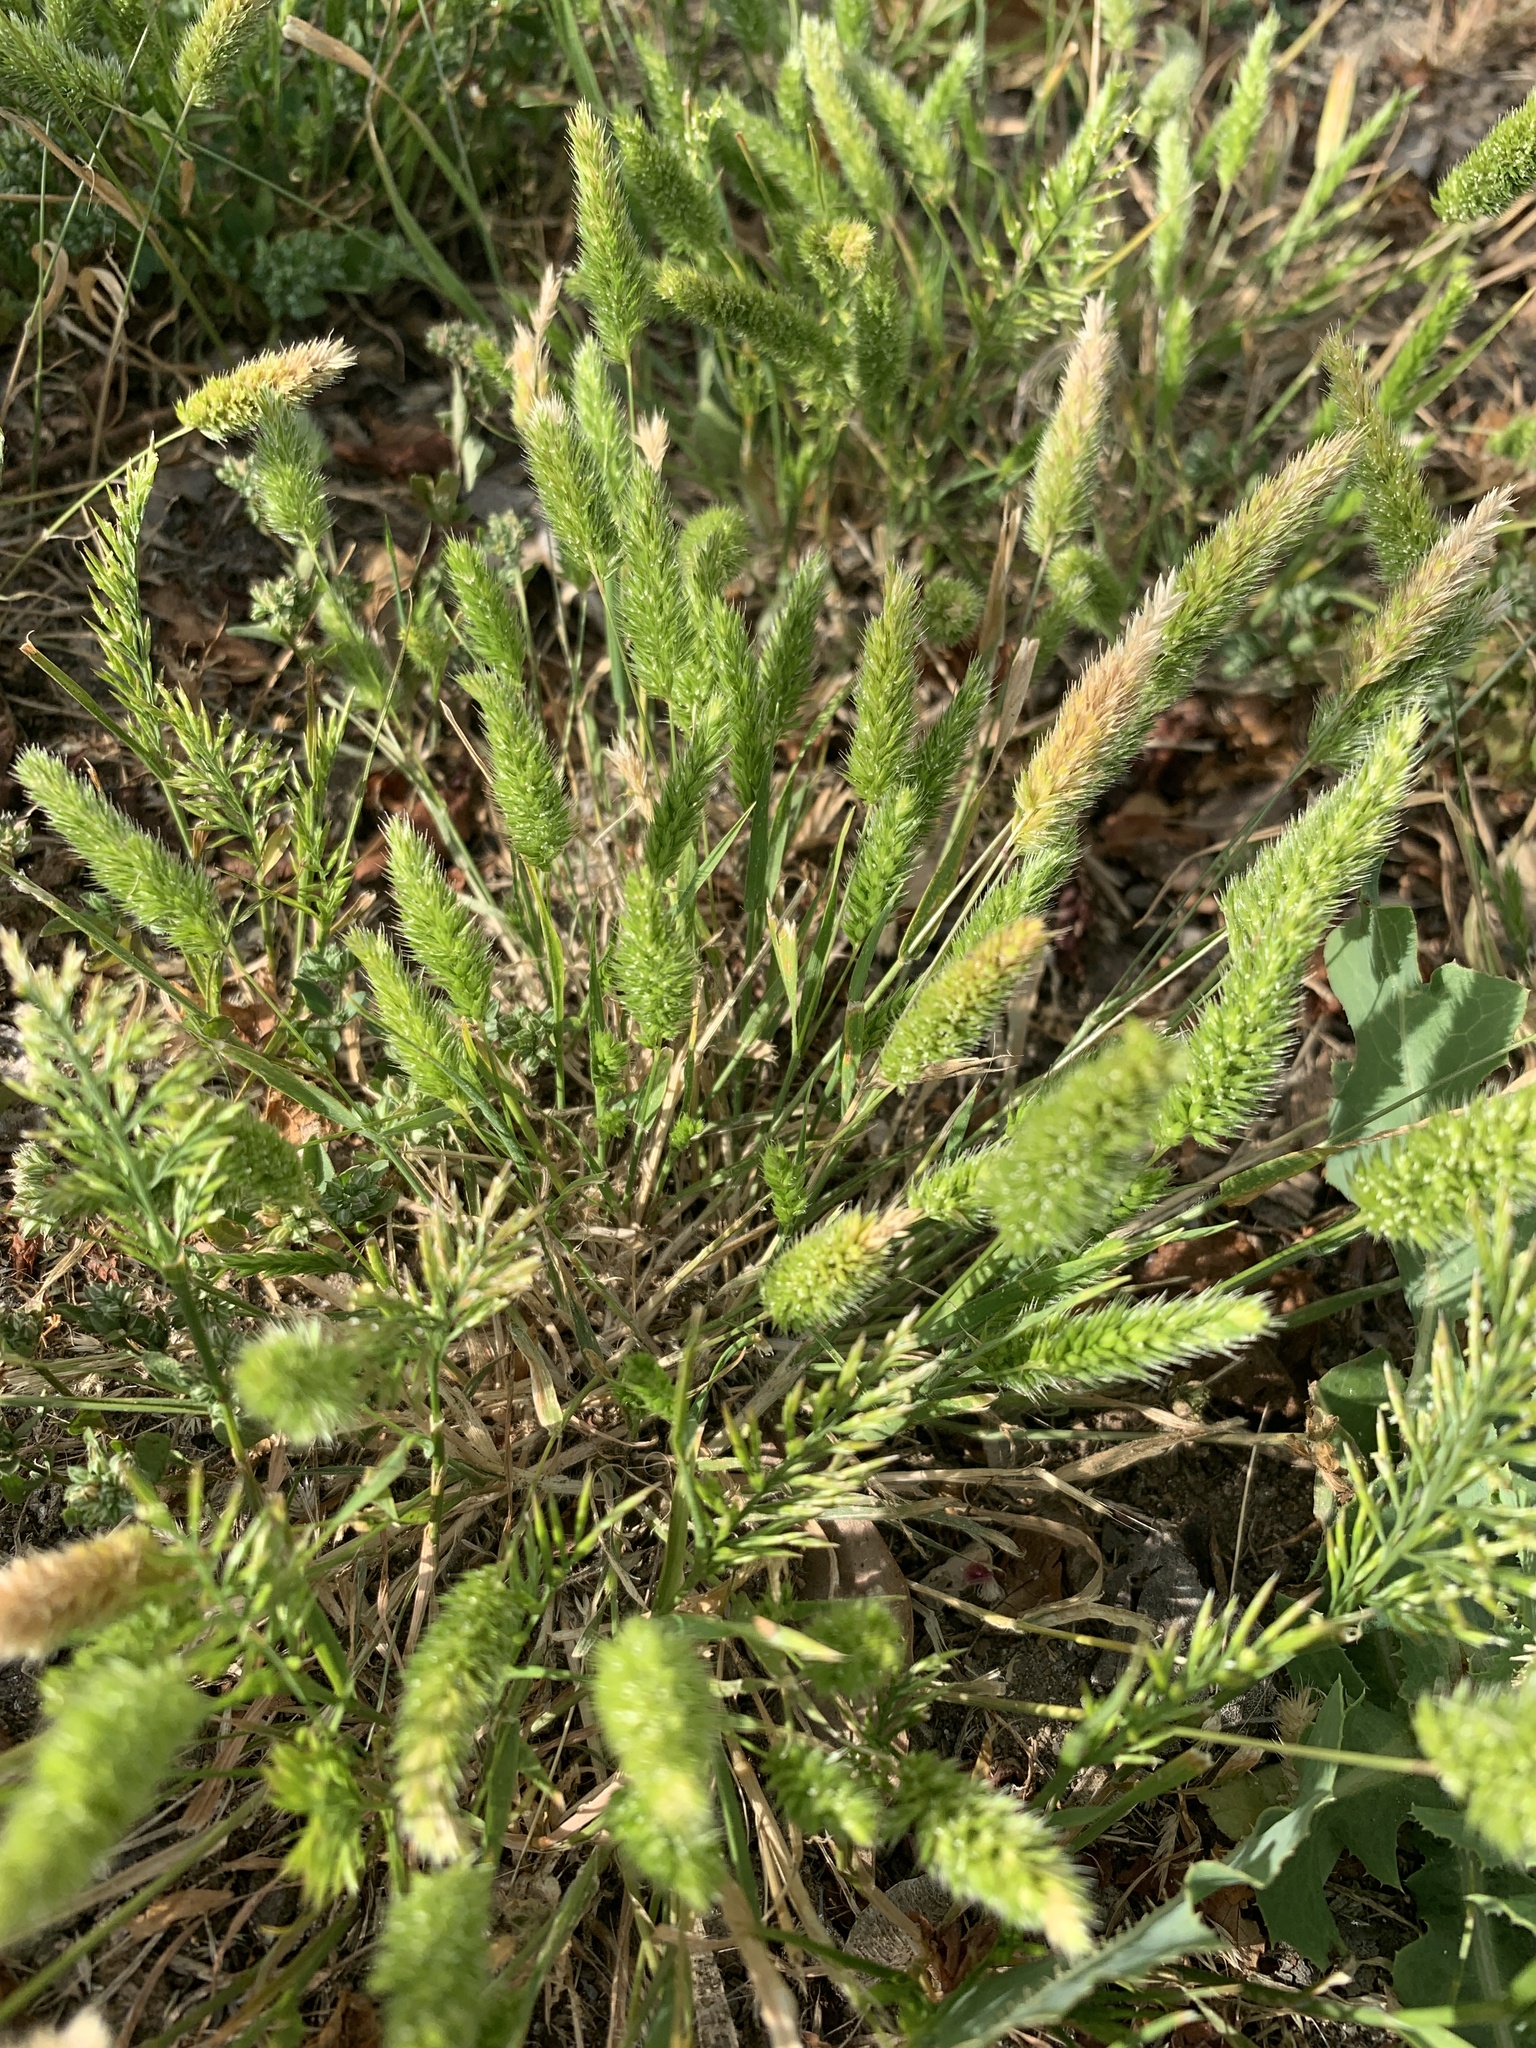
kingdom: Plantae
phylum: Tracheophyta
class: Liliopsida
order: Poales
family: Poaceae
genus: Rostraria
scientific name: Rostraria cristata
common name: Mediterranean hair-grass
